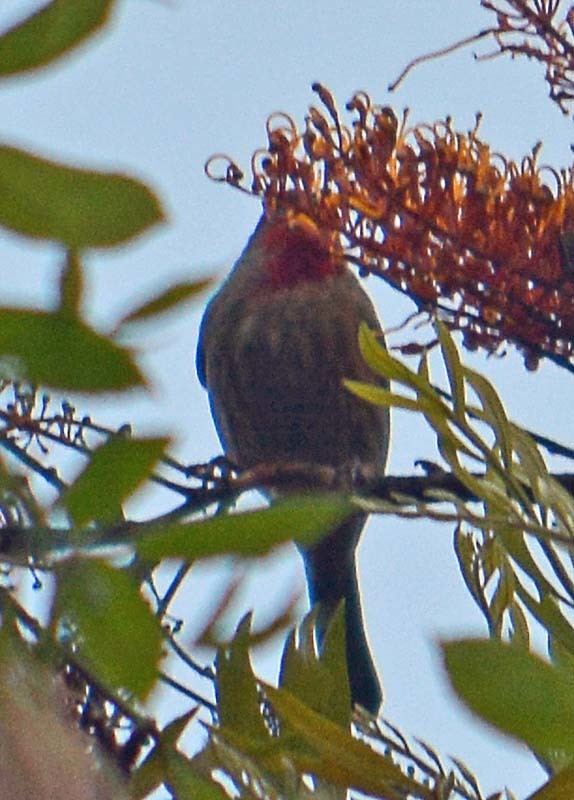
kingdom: Animalia
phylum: Chordata
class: Aves
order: Passeriformes
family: Fringillidae
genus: Haemorhous
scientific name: Haemorhous mexicanus
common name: House finch
